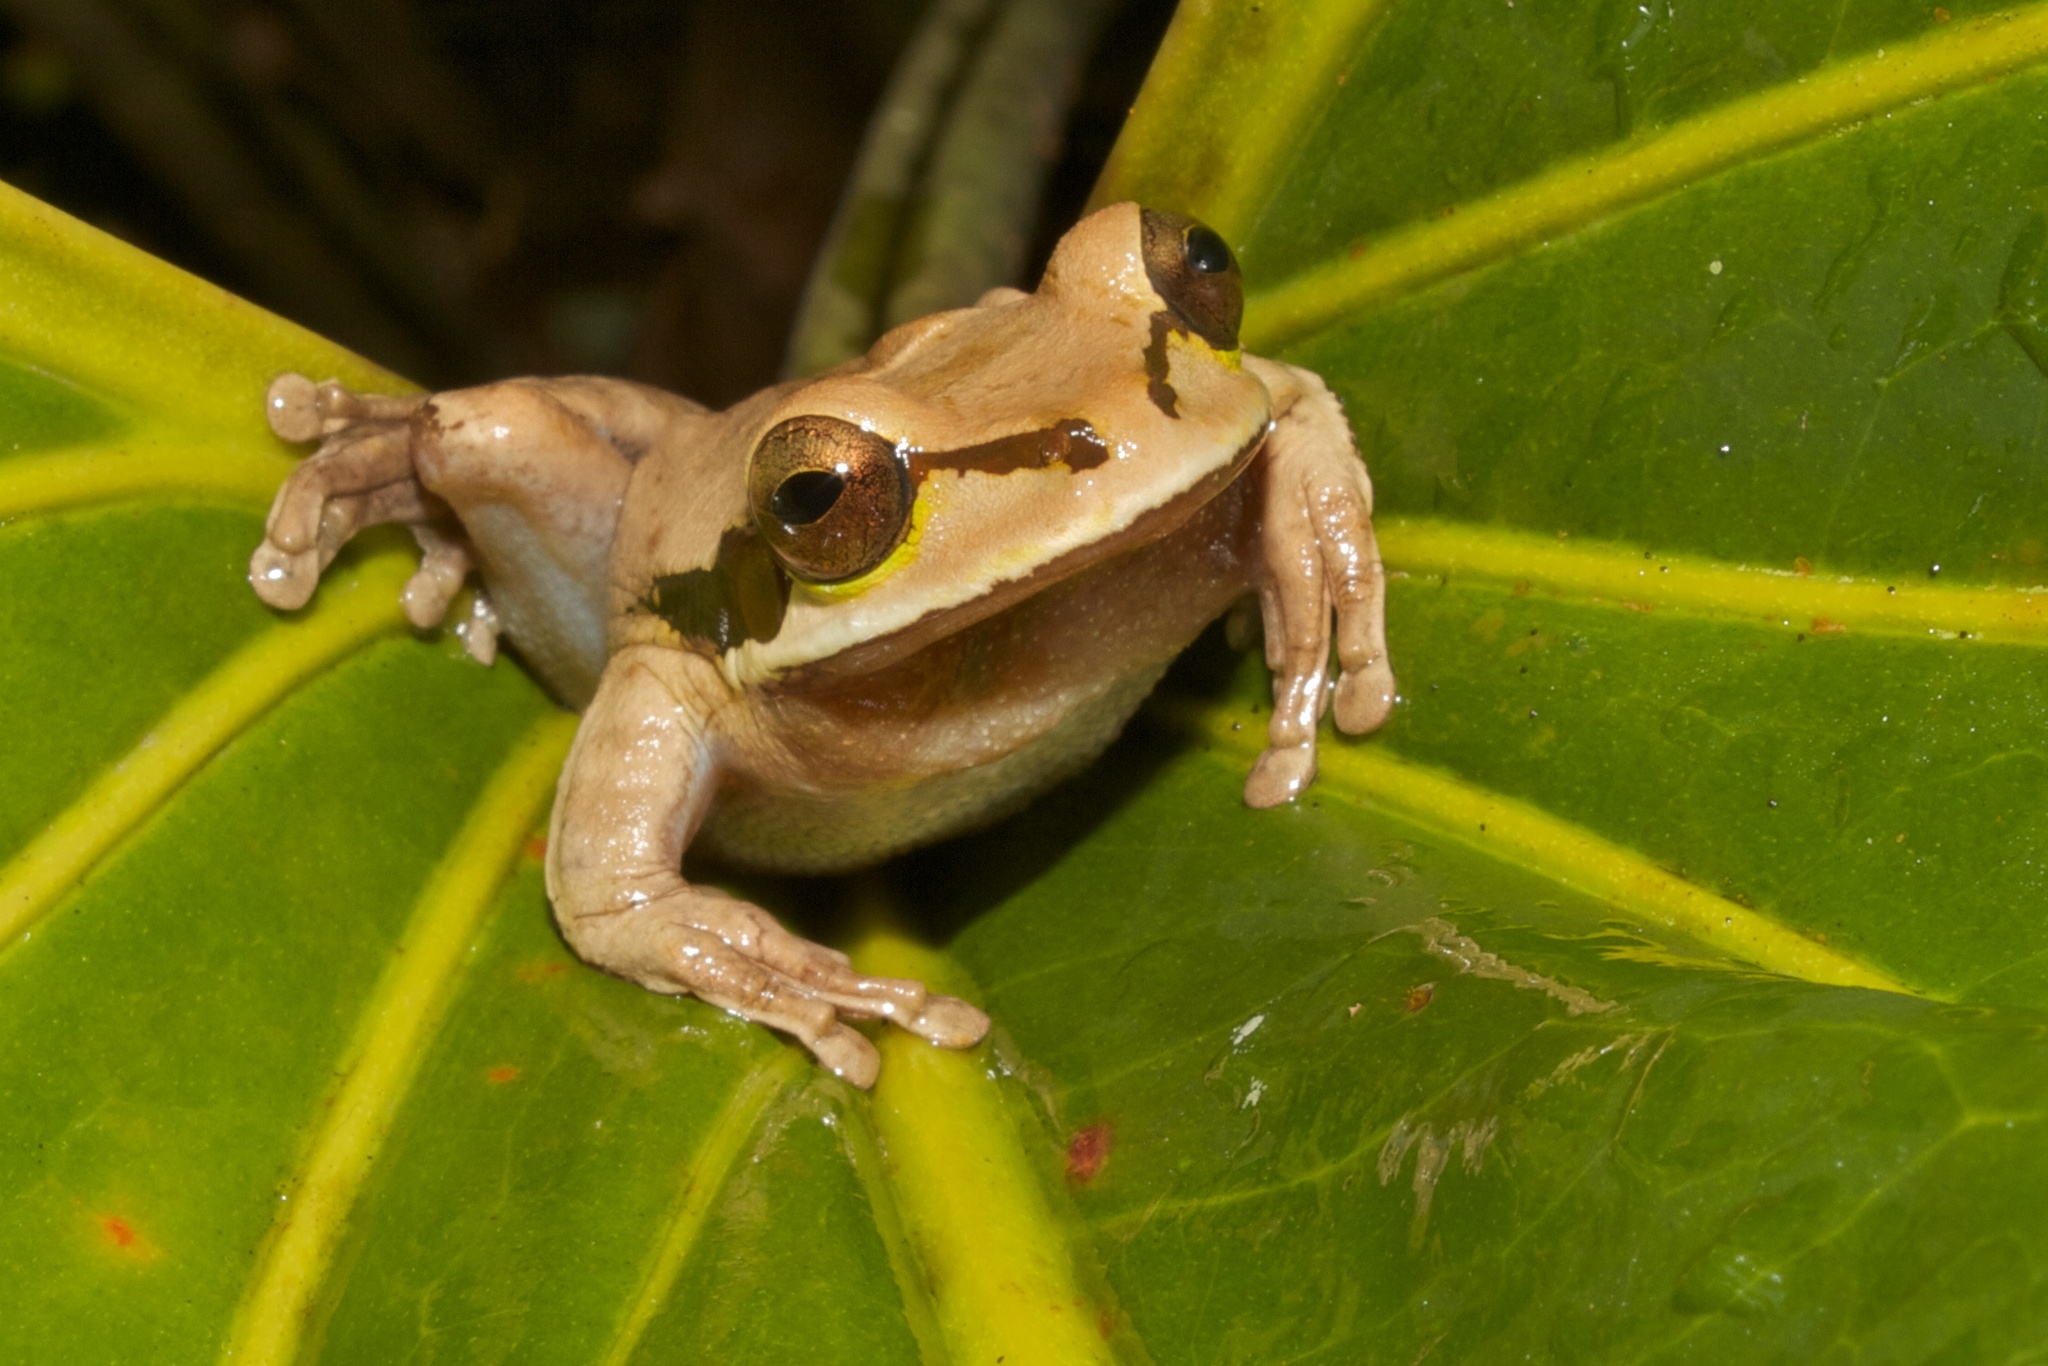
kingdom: Animalia
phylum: Chordata
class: Amphibia
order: Anura
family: Hylidae
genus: Smilisca
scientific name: Smilisca phaeota
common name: Central american smilisca
